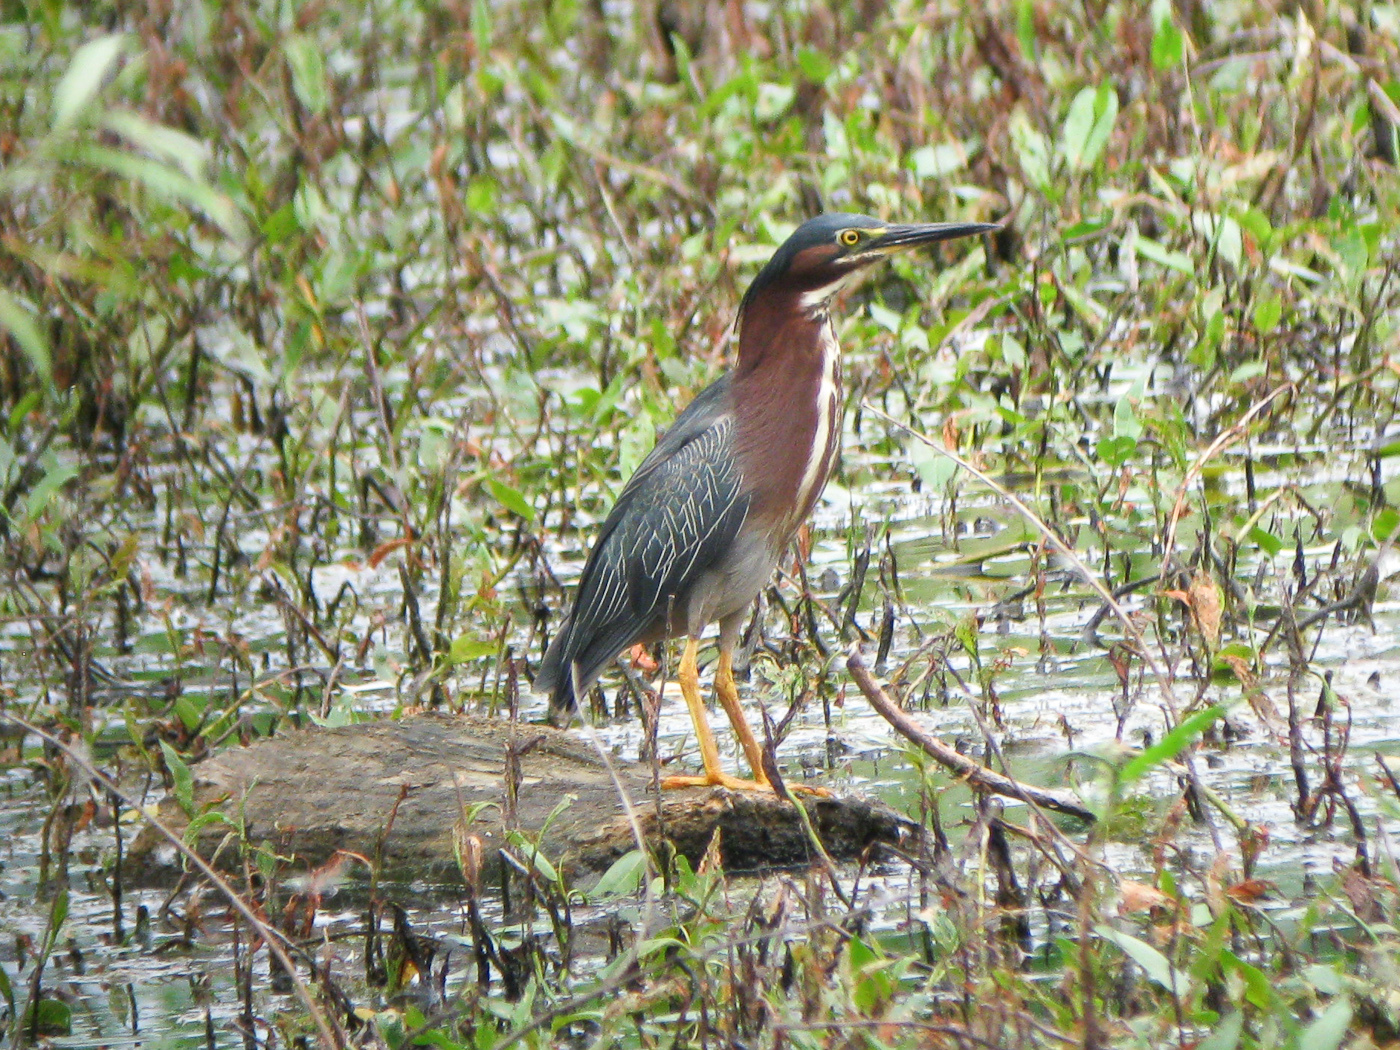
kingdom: Animalia
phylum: Chordata
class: Aves
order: Pelecaniformes
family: Ardeidae
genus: Butorides
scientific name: Butorides virescens
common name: Green heron
